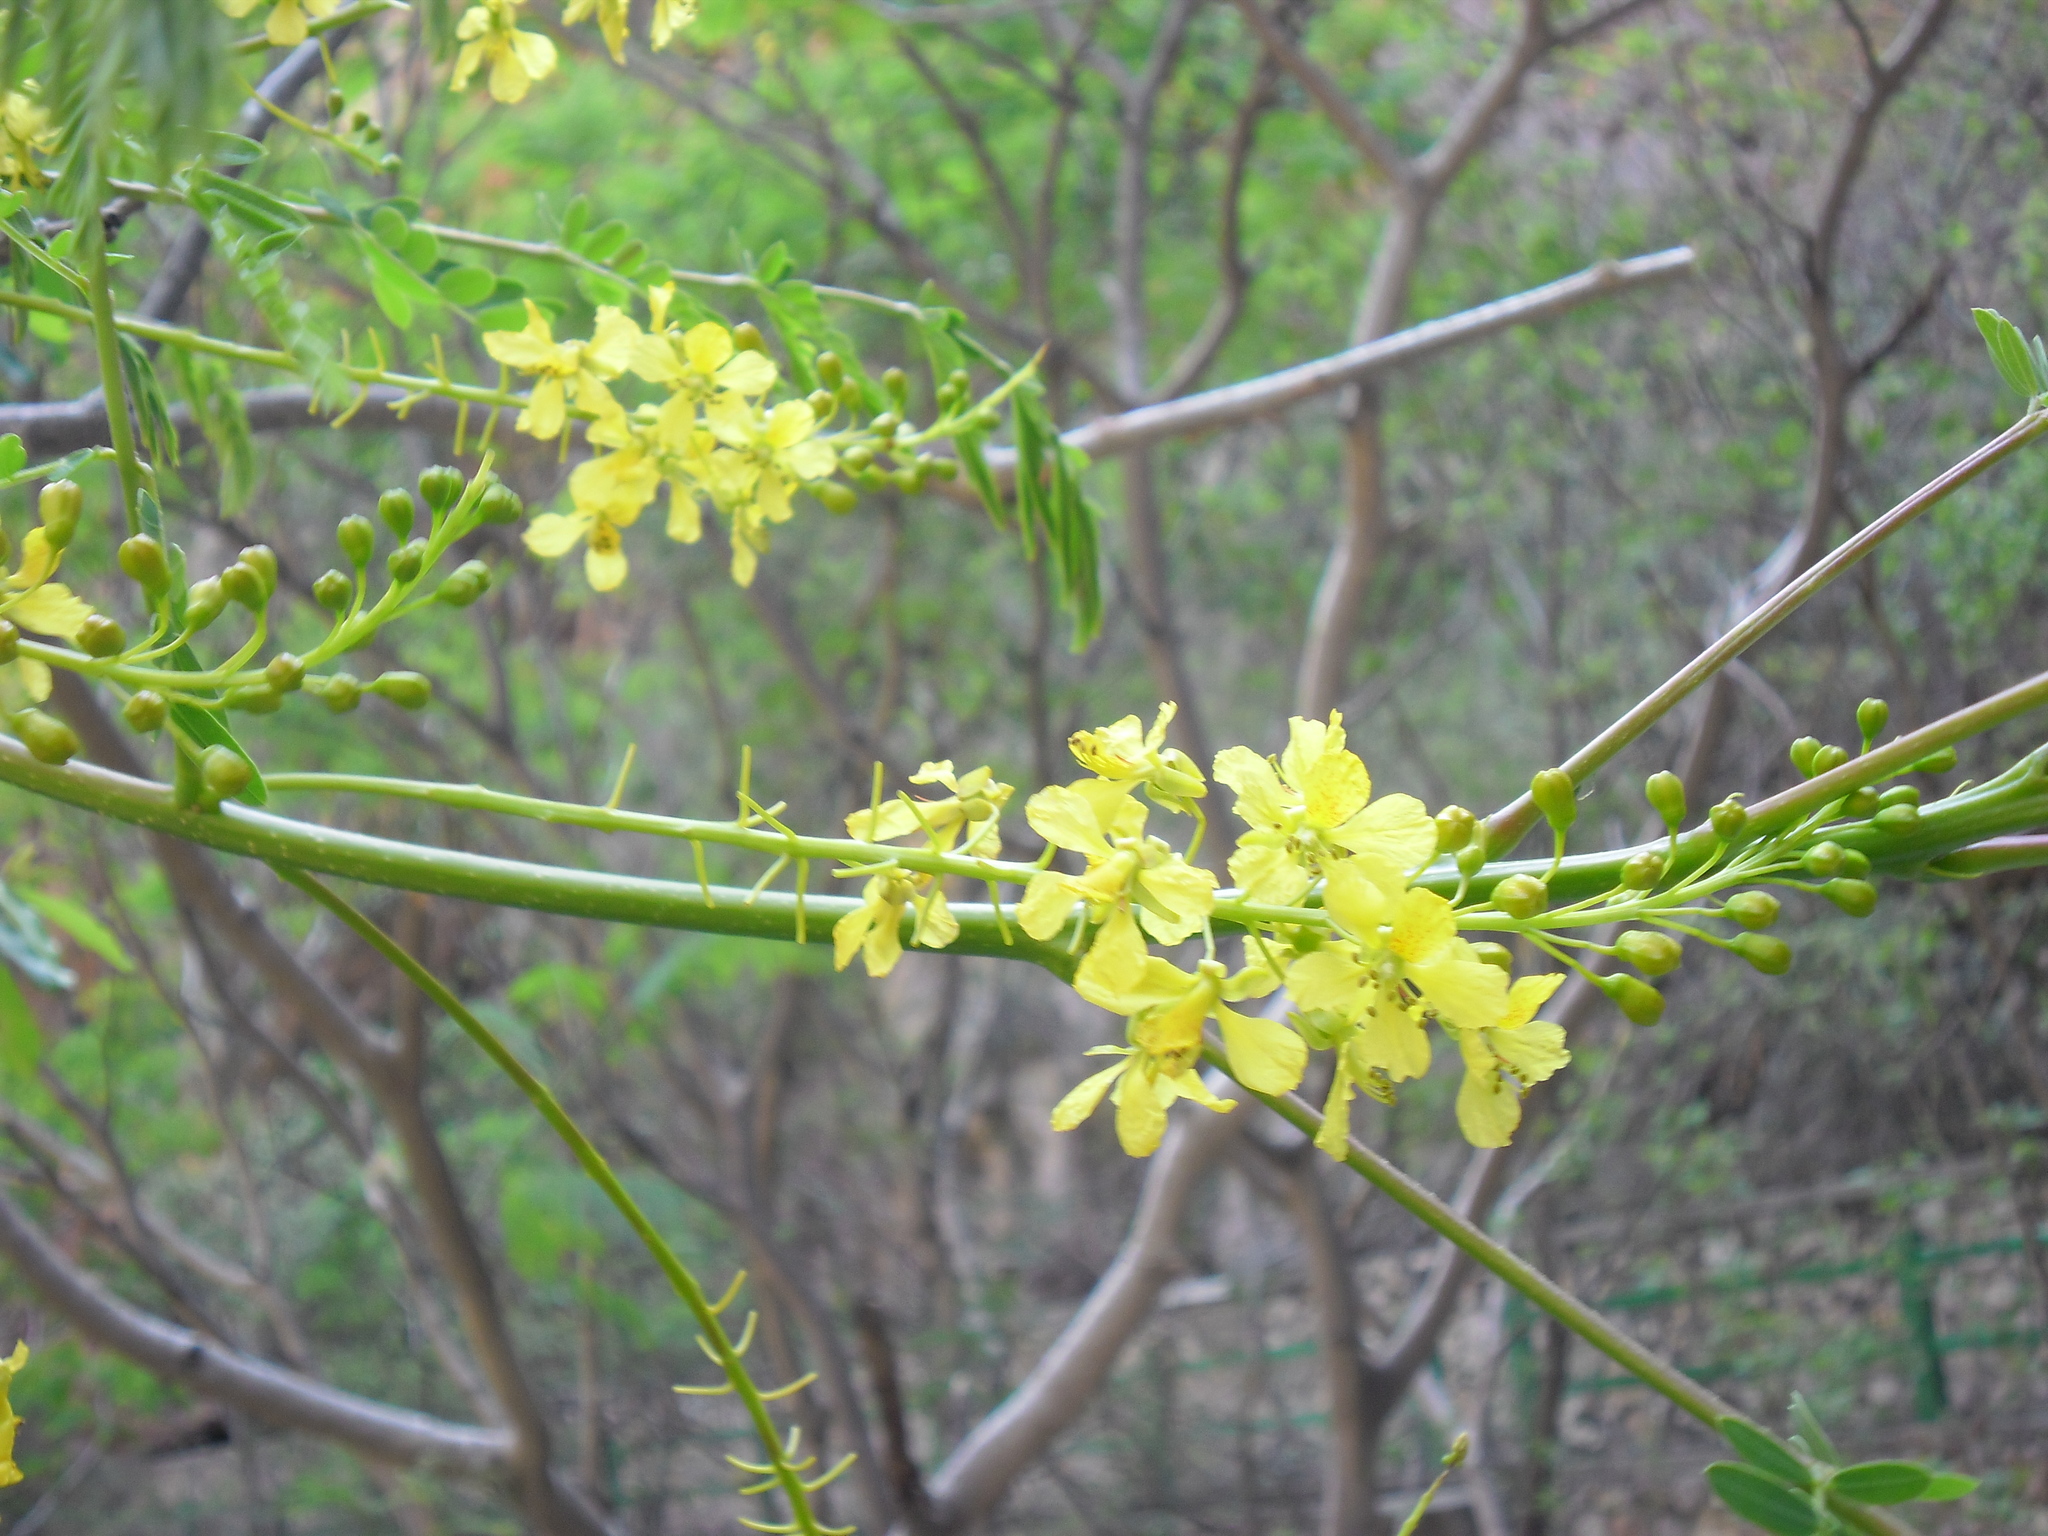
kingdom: Plantae
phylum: Tracheophyta
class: Magnoliopsida
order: Fabales
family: Fabaceae
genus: Conzattia
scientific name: Conzattia multiflora
